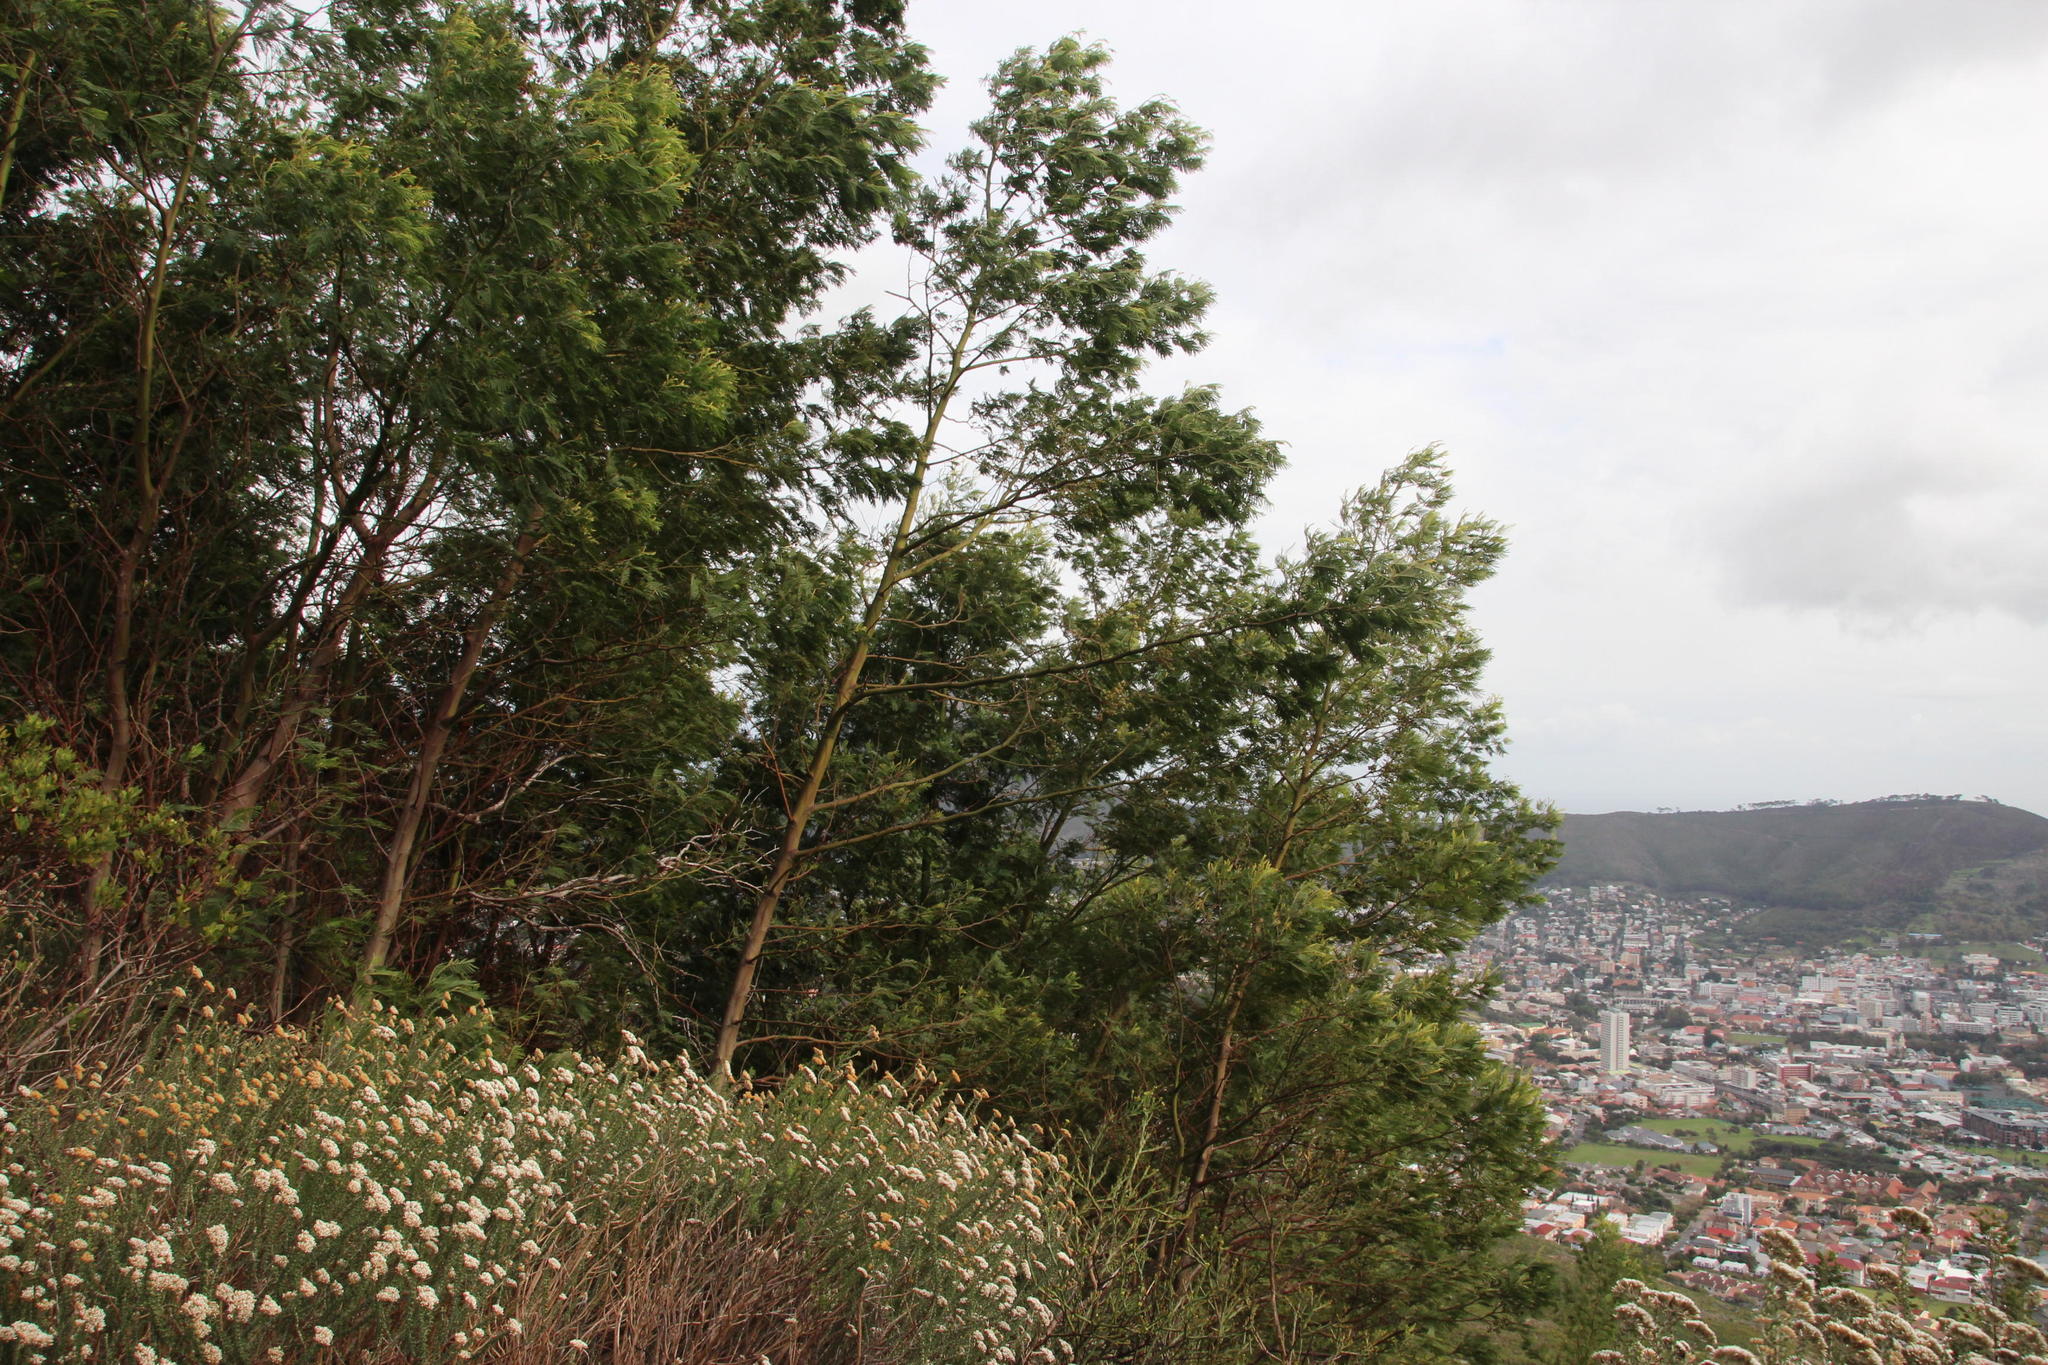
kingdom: Plantae
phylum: Tracheophyta
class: Magnoliopsida
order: Fabales
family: Fabaceae
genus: Acacia
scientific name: Acacia mearnsii
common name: Black wattle
